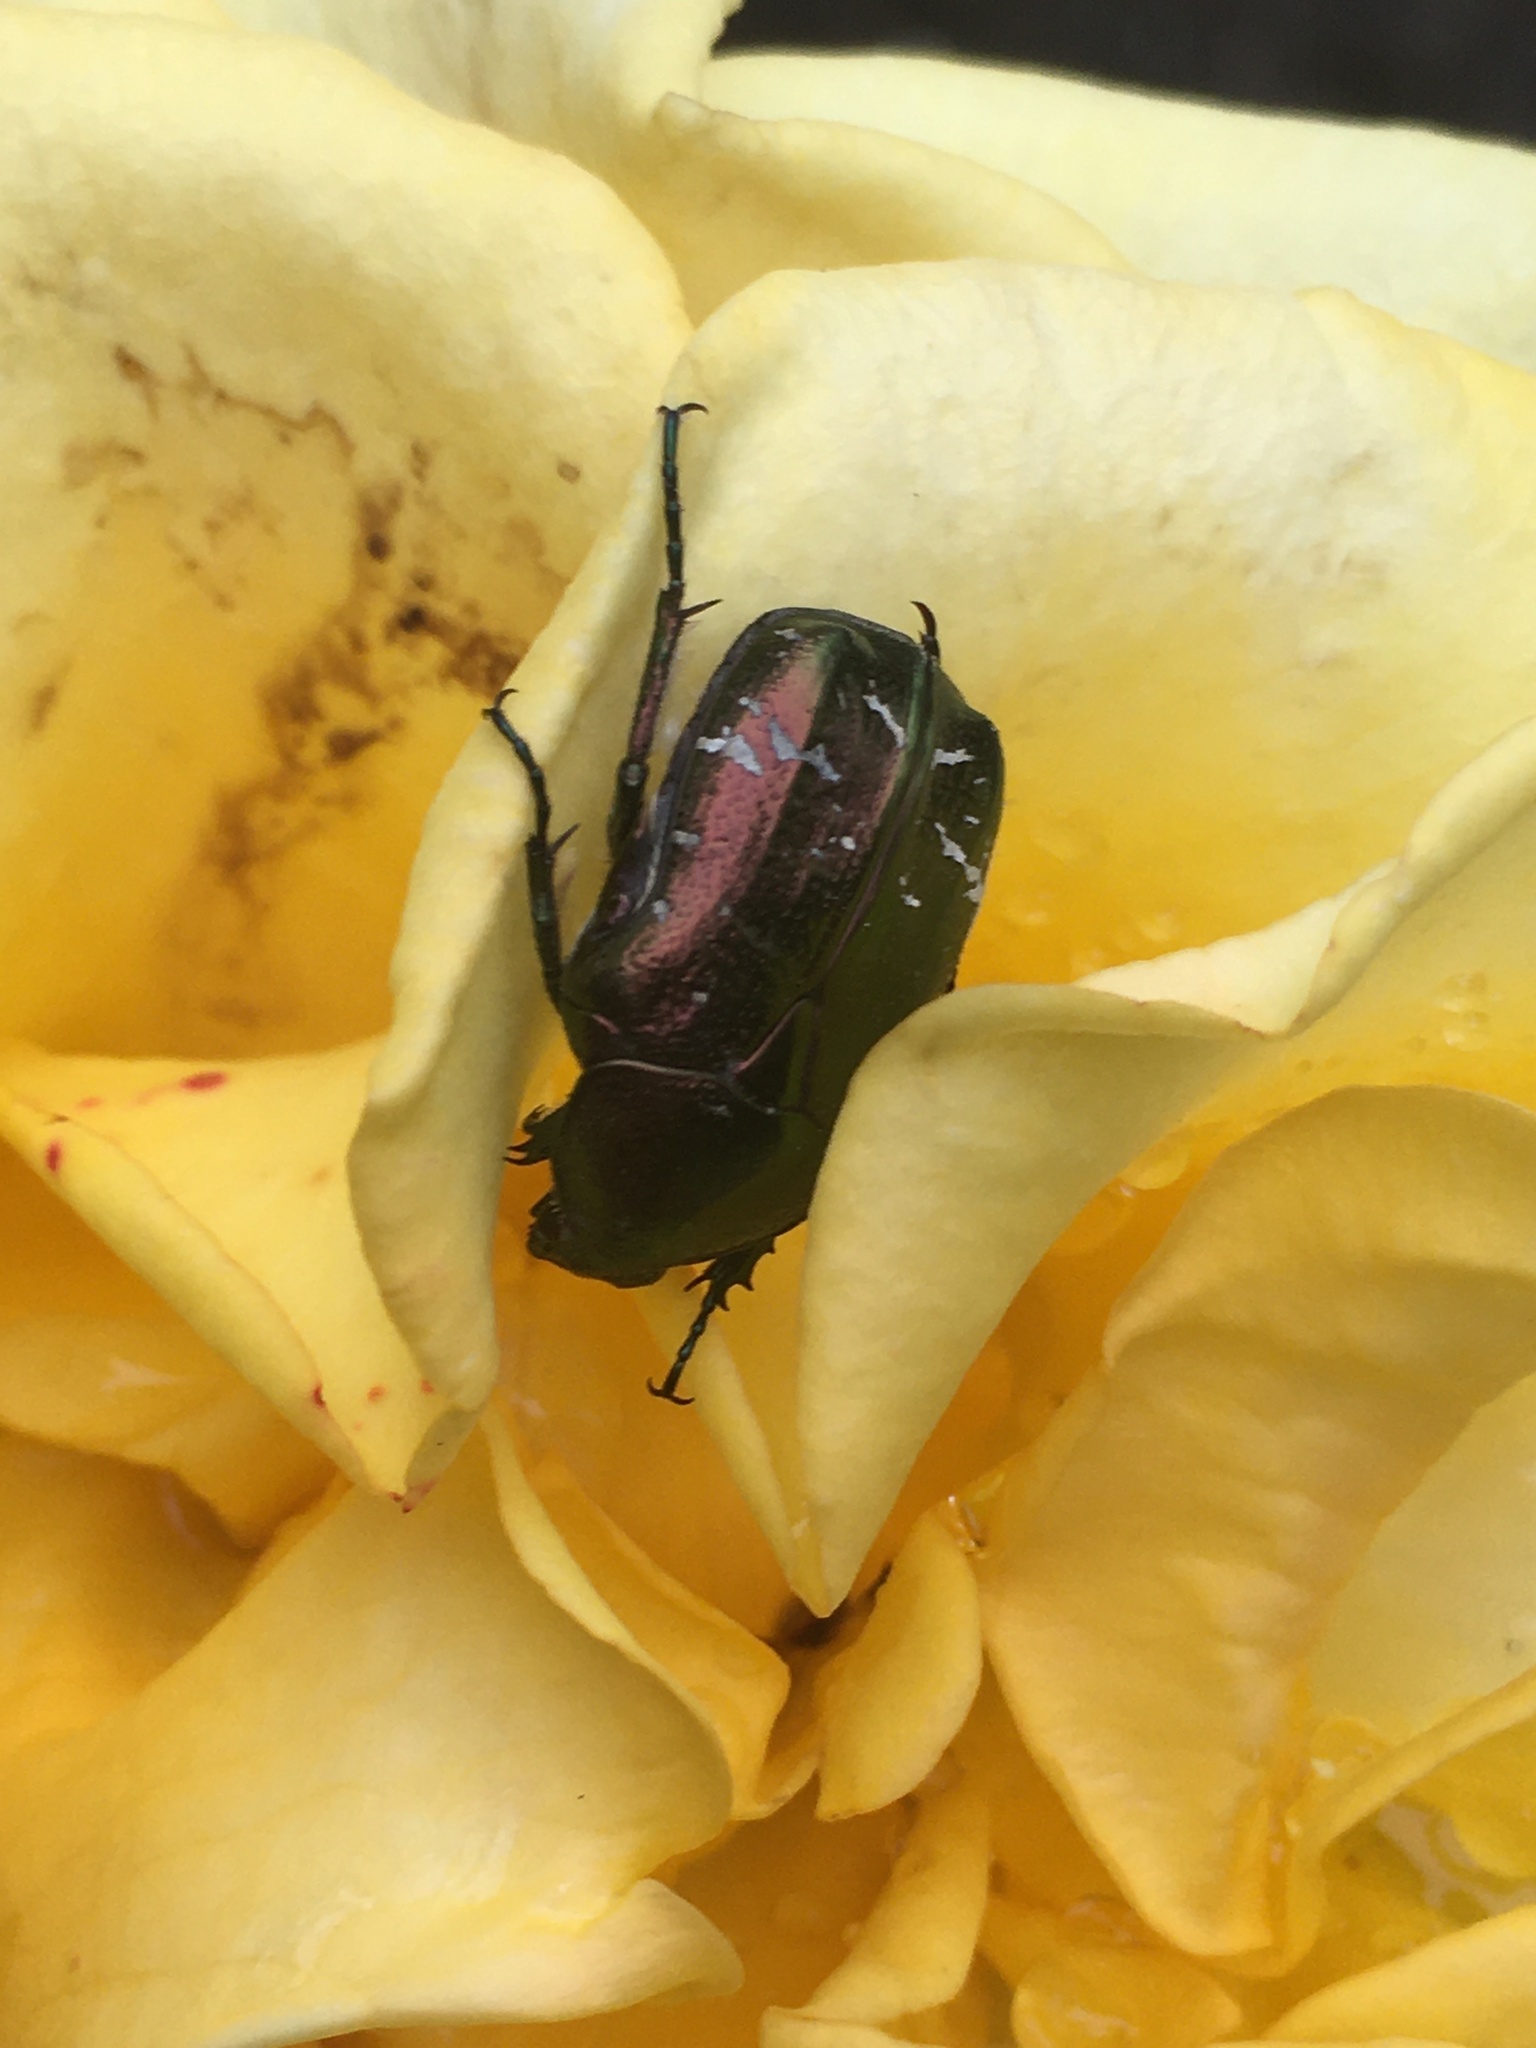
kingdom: Animalia
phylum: Arthropoda
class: Insecta
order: Coleoptera
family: Scarabaeidae
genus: Cetonia
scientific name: Cetonia aurata
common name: Rose chafer
